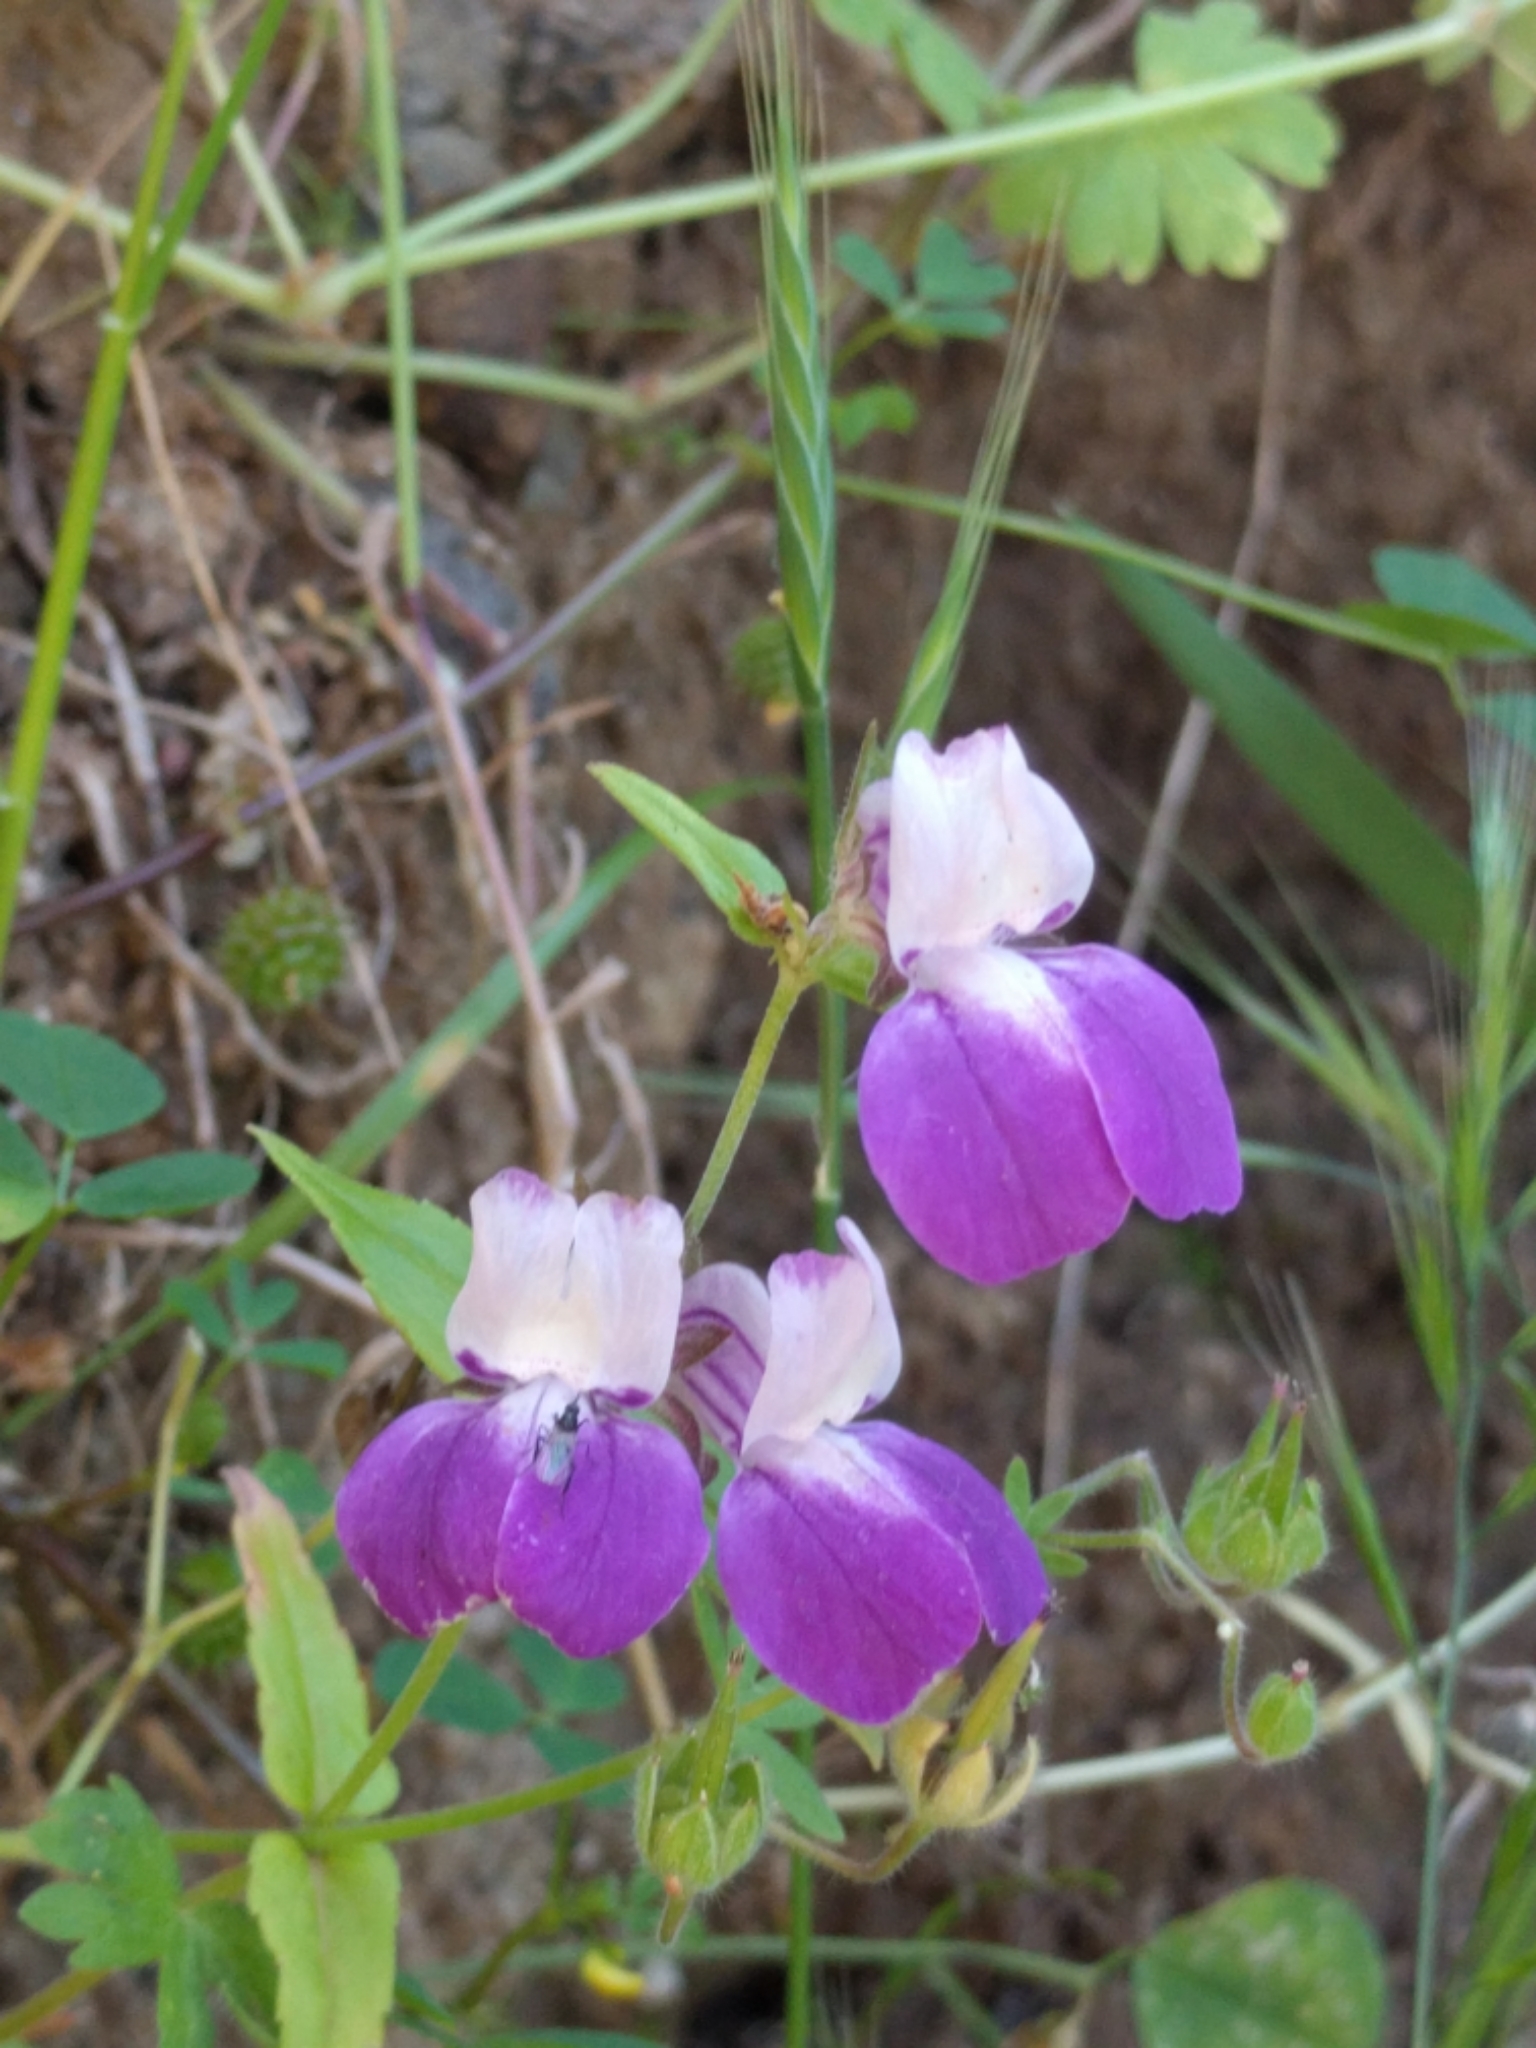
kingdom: Plantae
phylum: Tracheophyta
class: Magnoliopsida
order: Lamiales
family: Plantaginaceae
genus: Collinsia
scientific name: Collinsia heterophylla
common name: Chinese-houses
